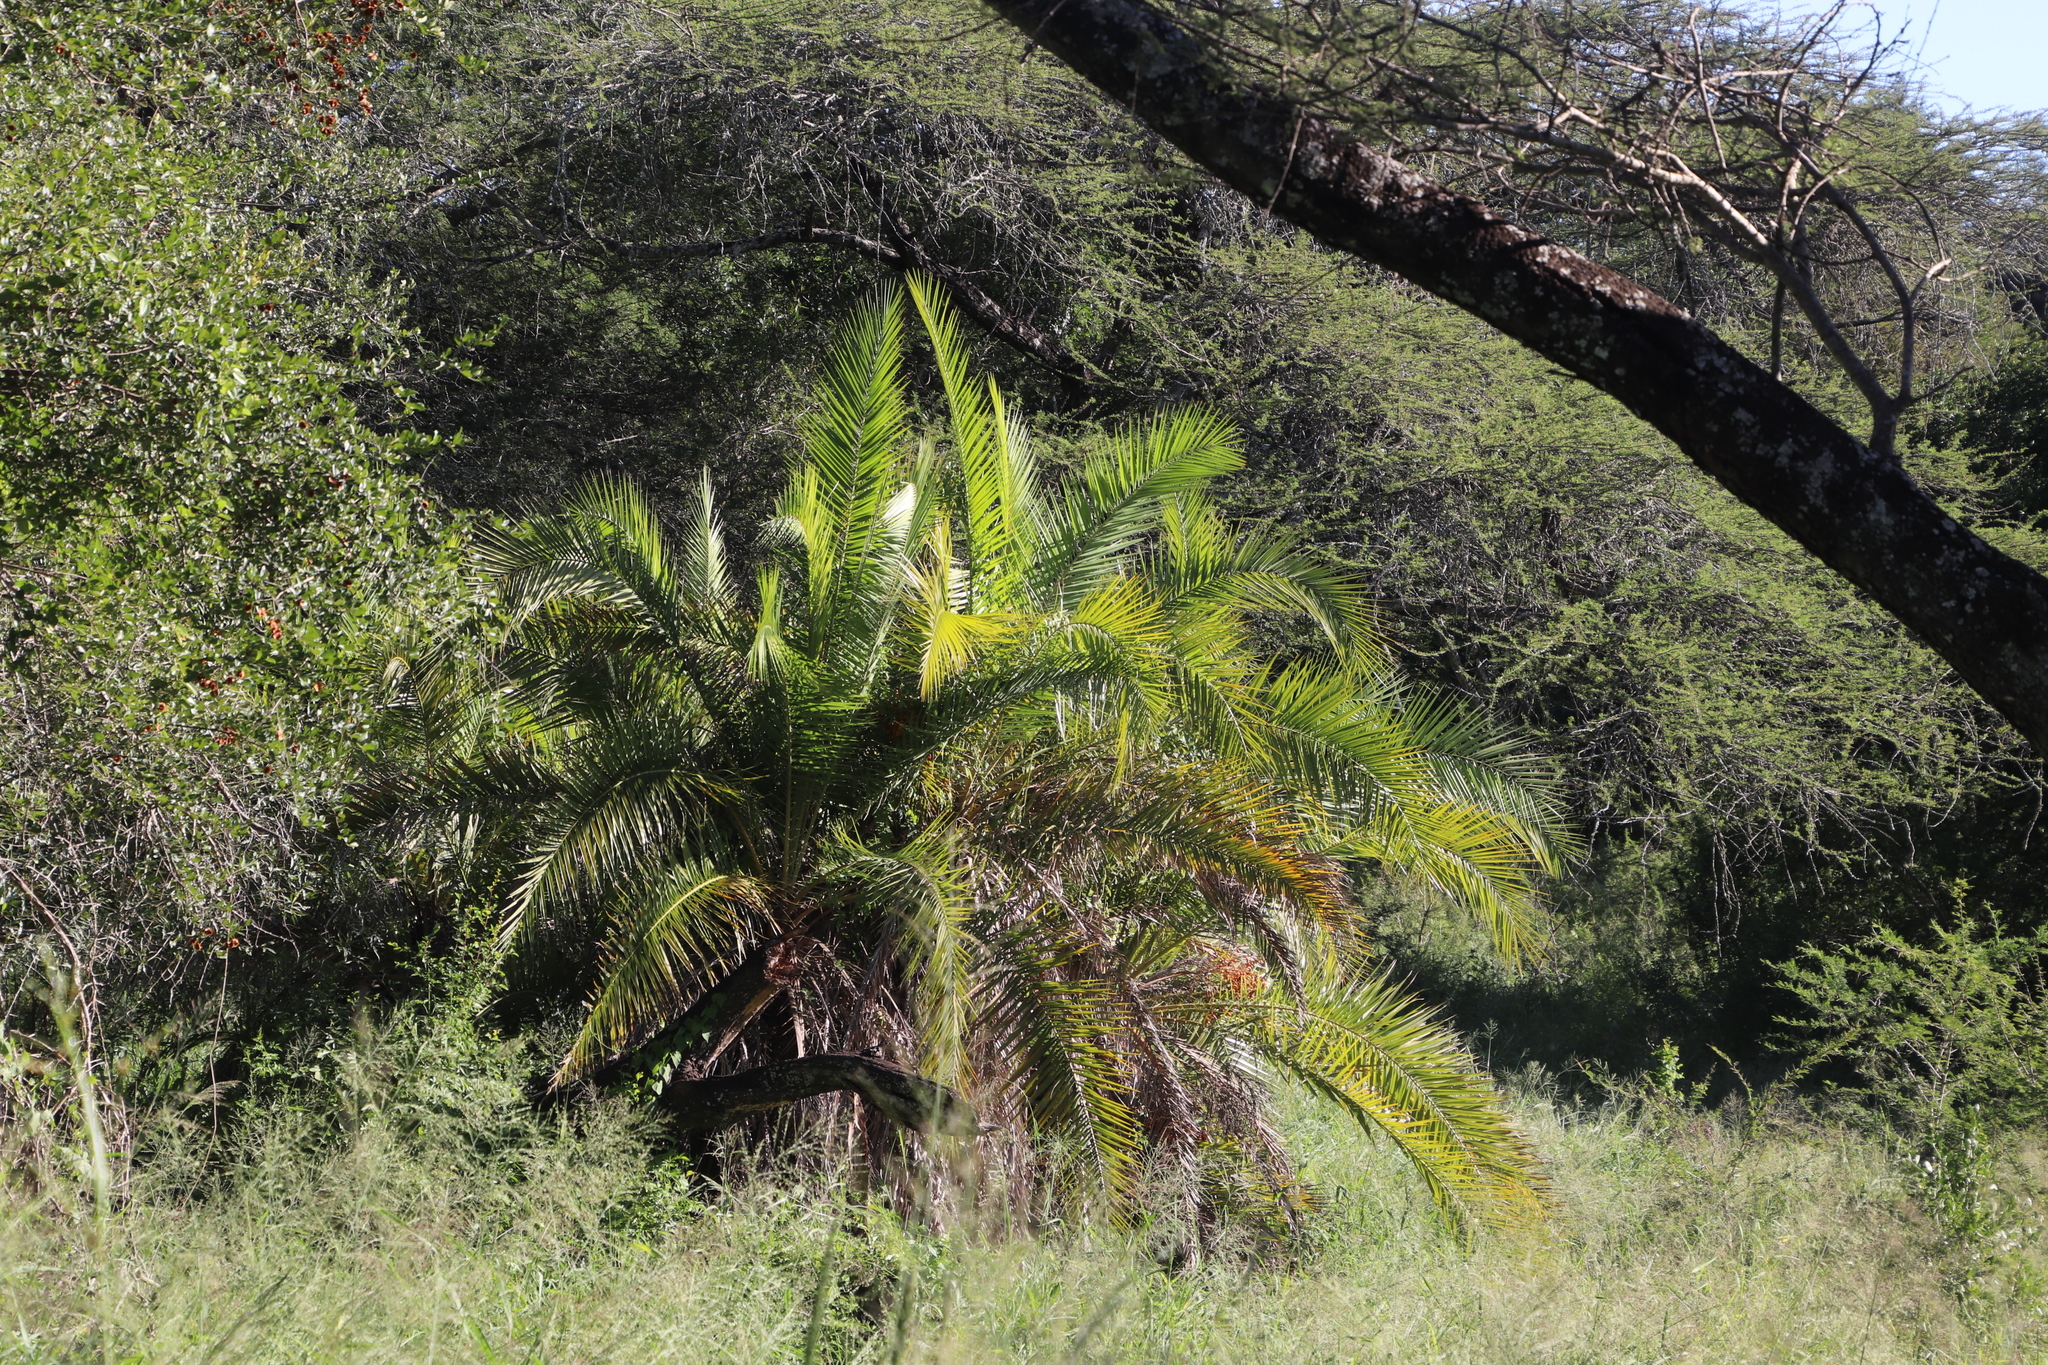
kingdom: Plantae
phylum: Tracheophyta
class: Liliopsida
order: Arecales
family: Arecaceae
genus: Phoenix
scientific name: Phoenix reclinata
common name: Senegal date palm
